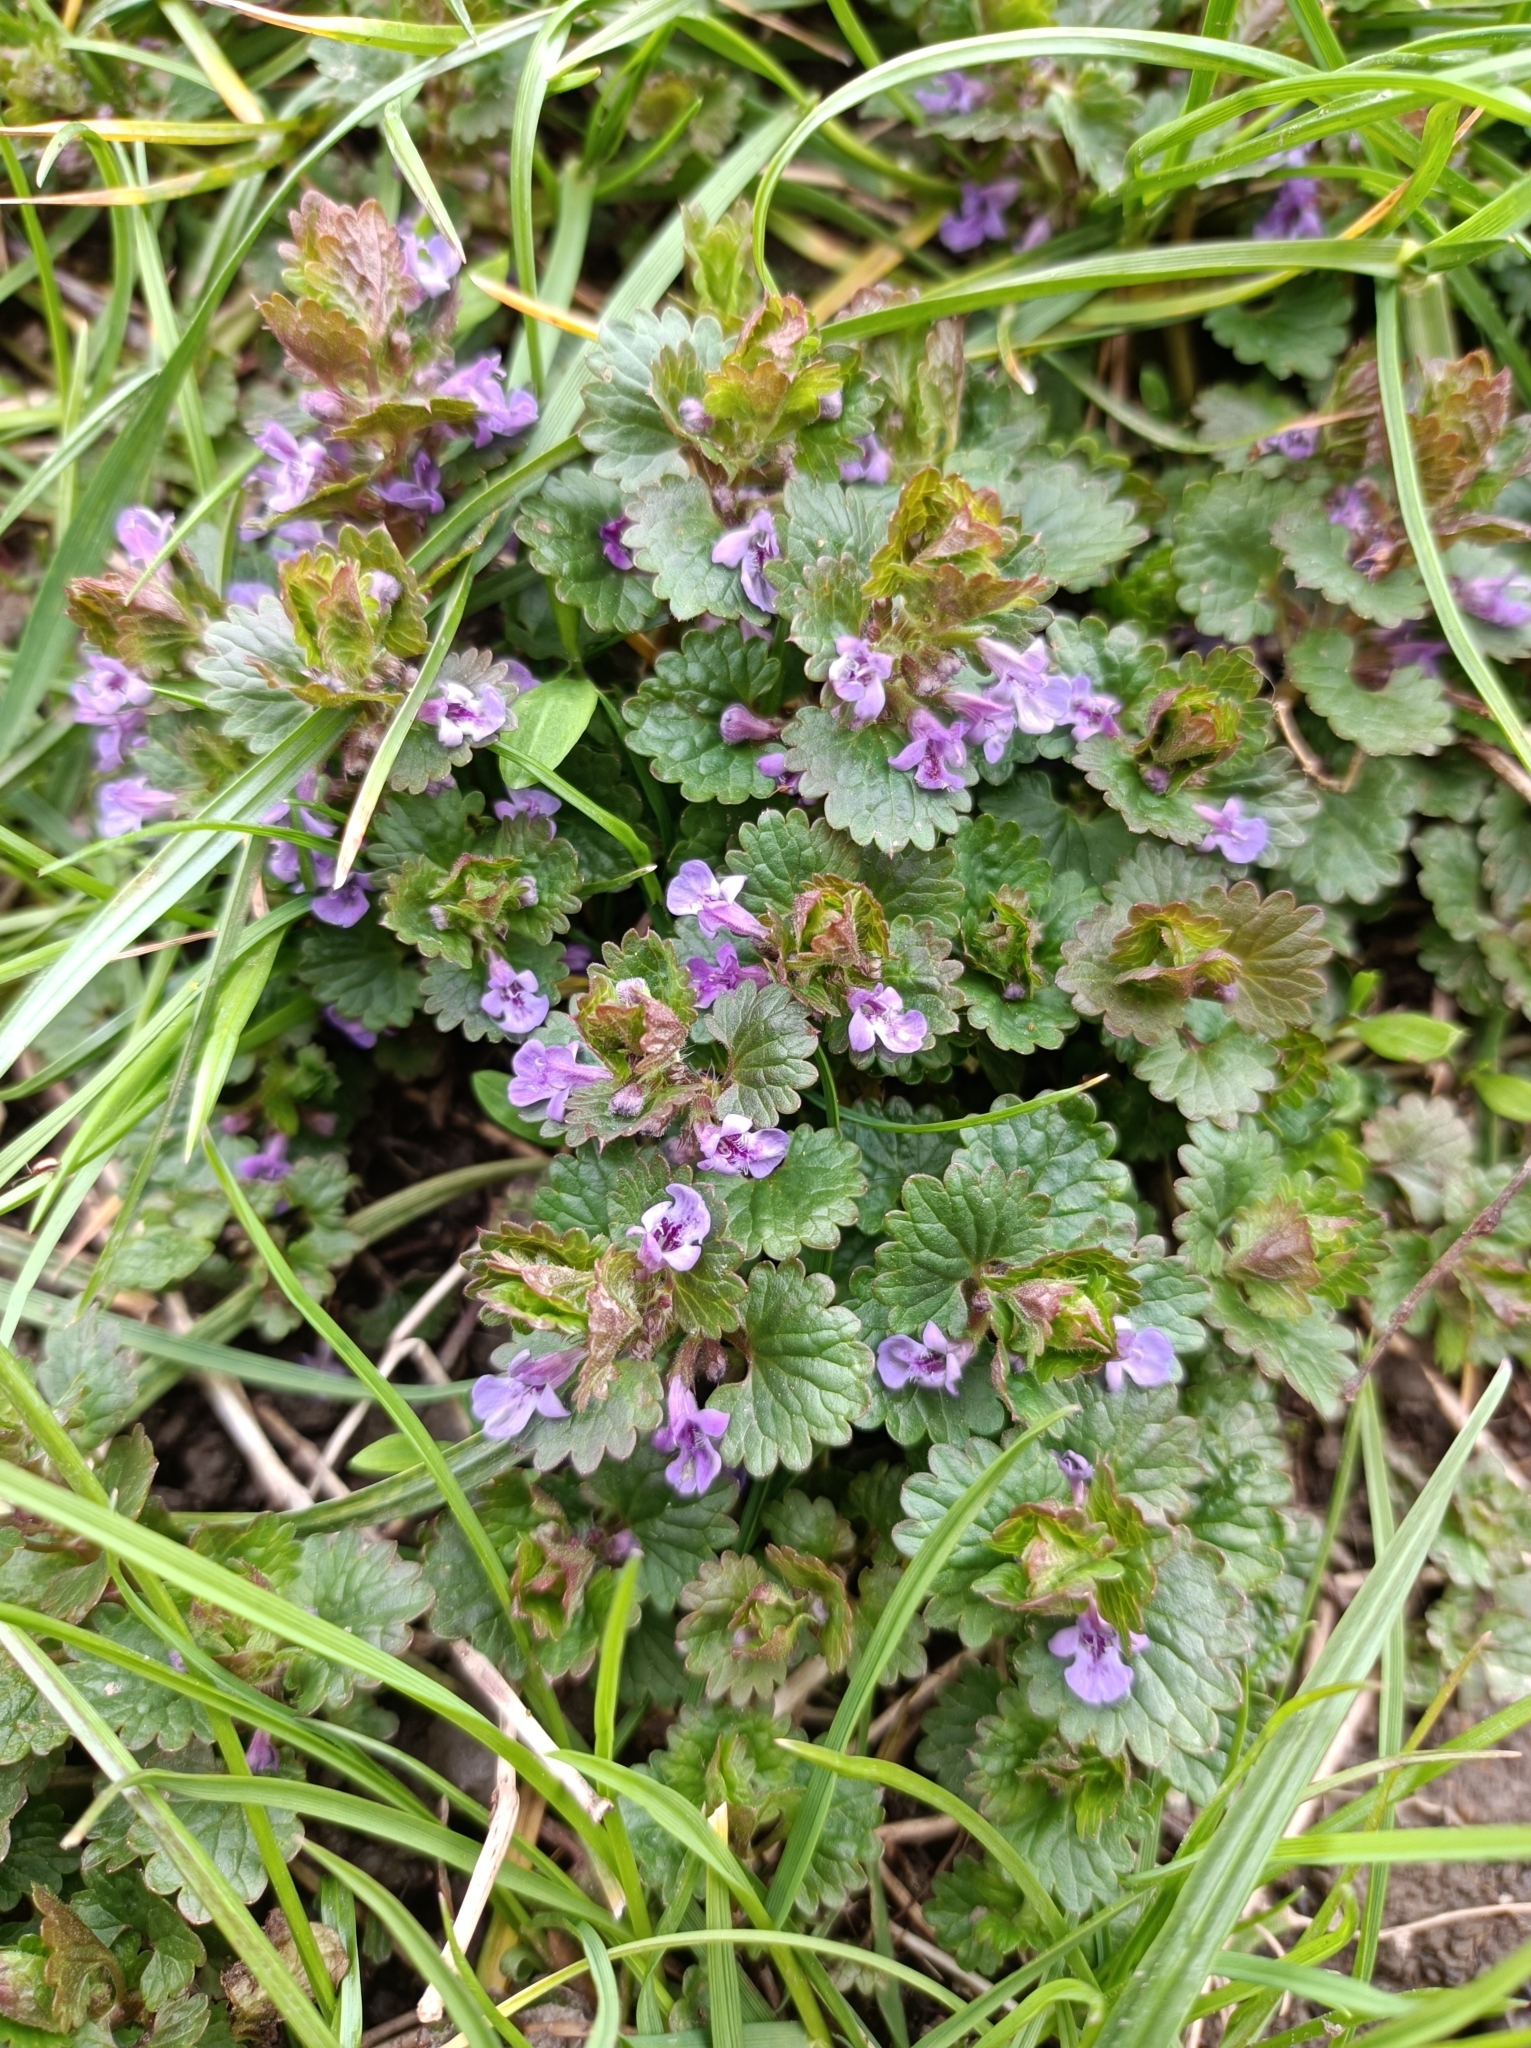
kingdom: Plantae
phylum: Tracheophyta
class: Magnoliopsida
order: Lamiales
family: Lamiaceae
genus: Glechoma
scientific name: Glechoma hederacea
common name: Ground ivy
